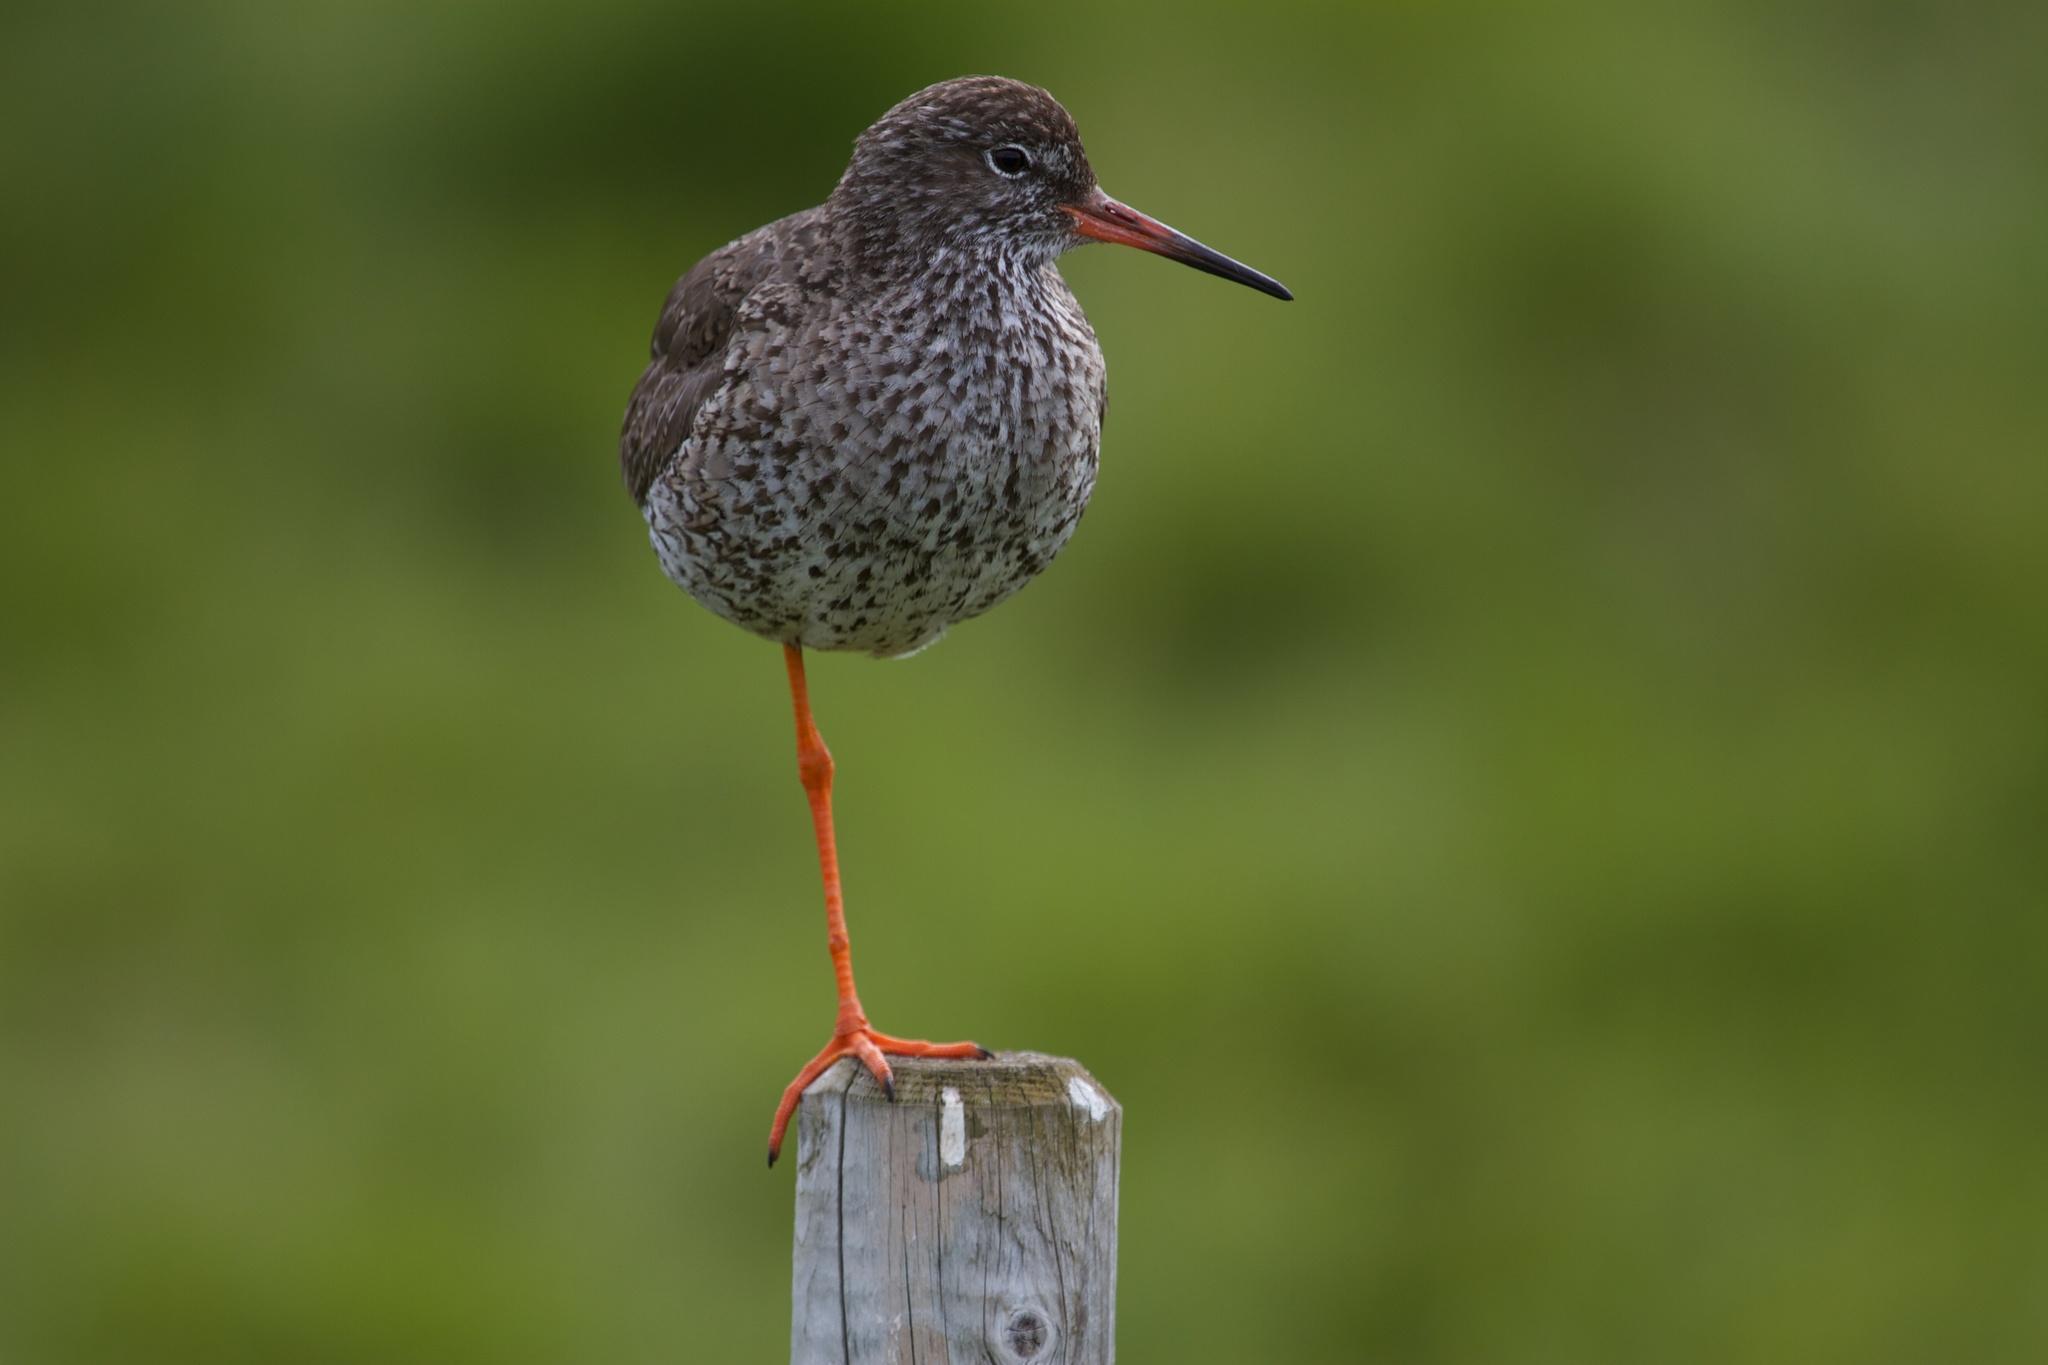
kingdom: Animalia
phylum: Chordata
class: Aves
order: Charadriiformes
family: Scolopacidae
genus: Tringa
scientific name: Tringa totanus
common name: Common redshank
